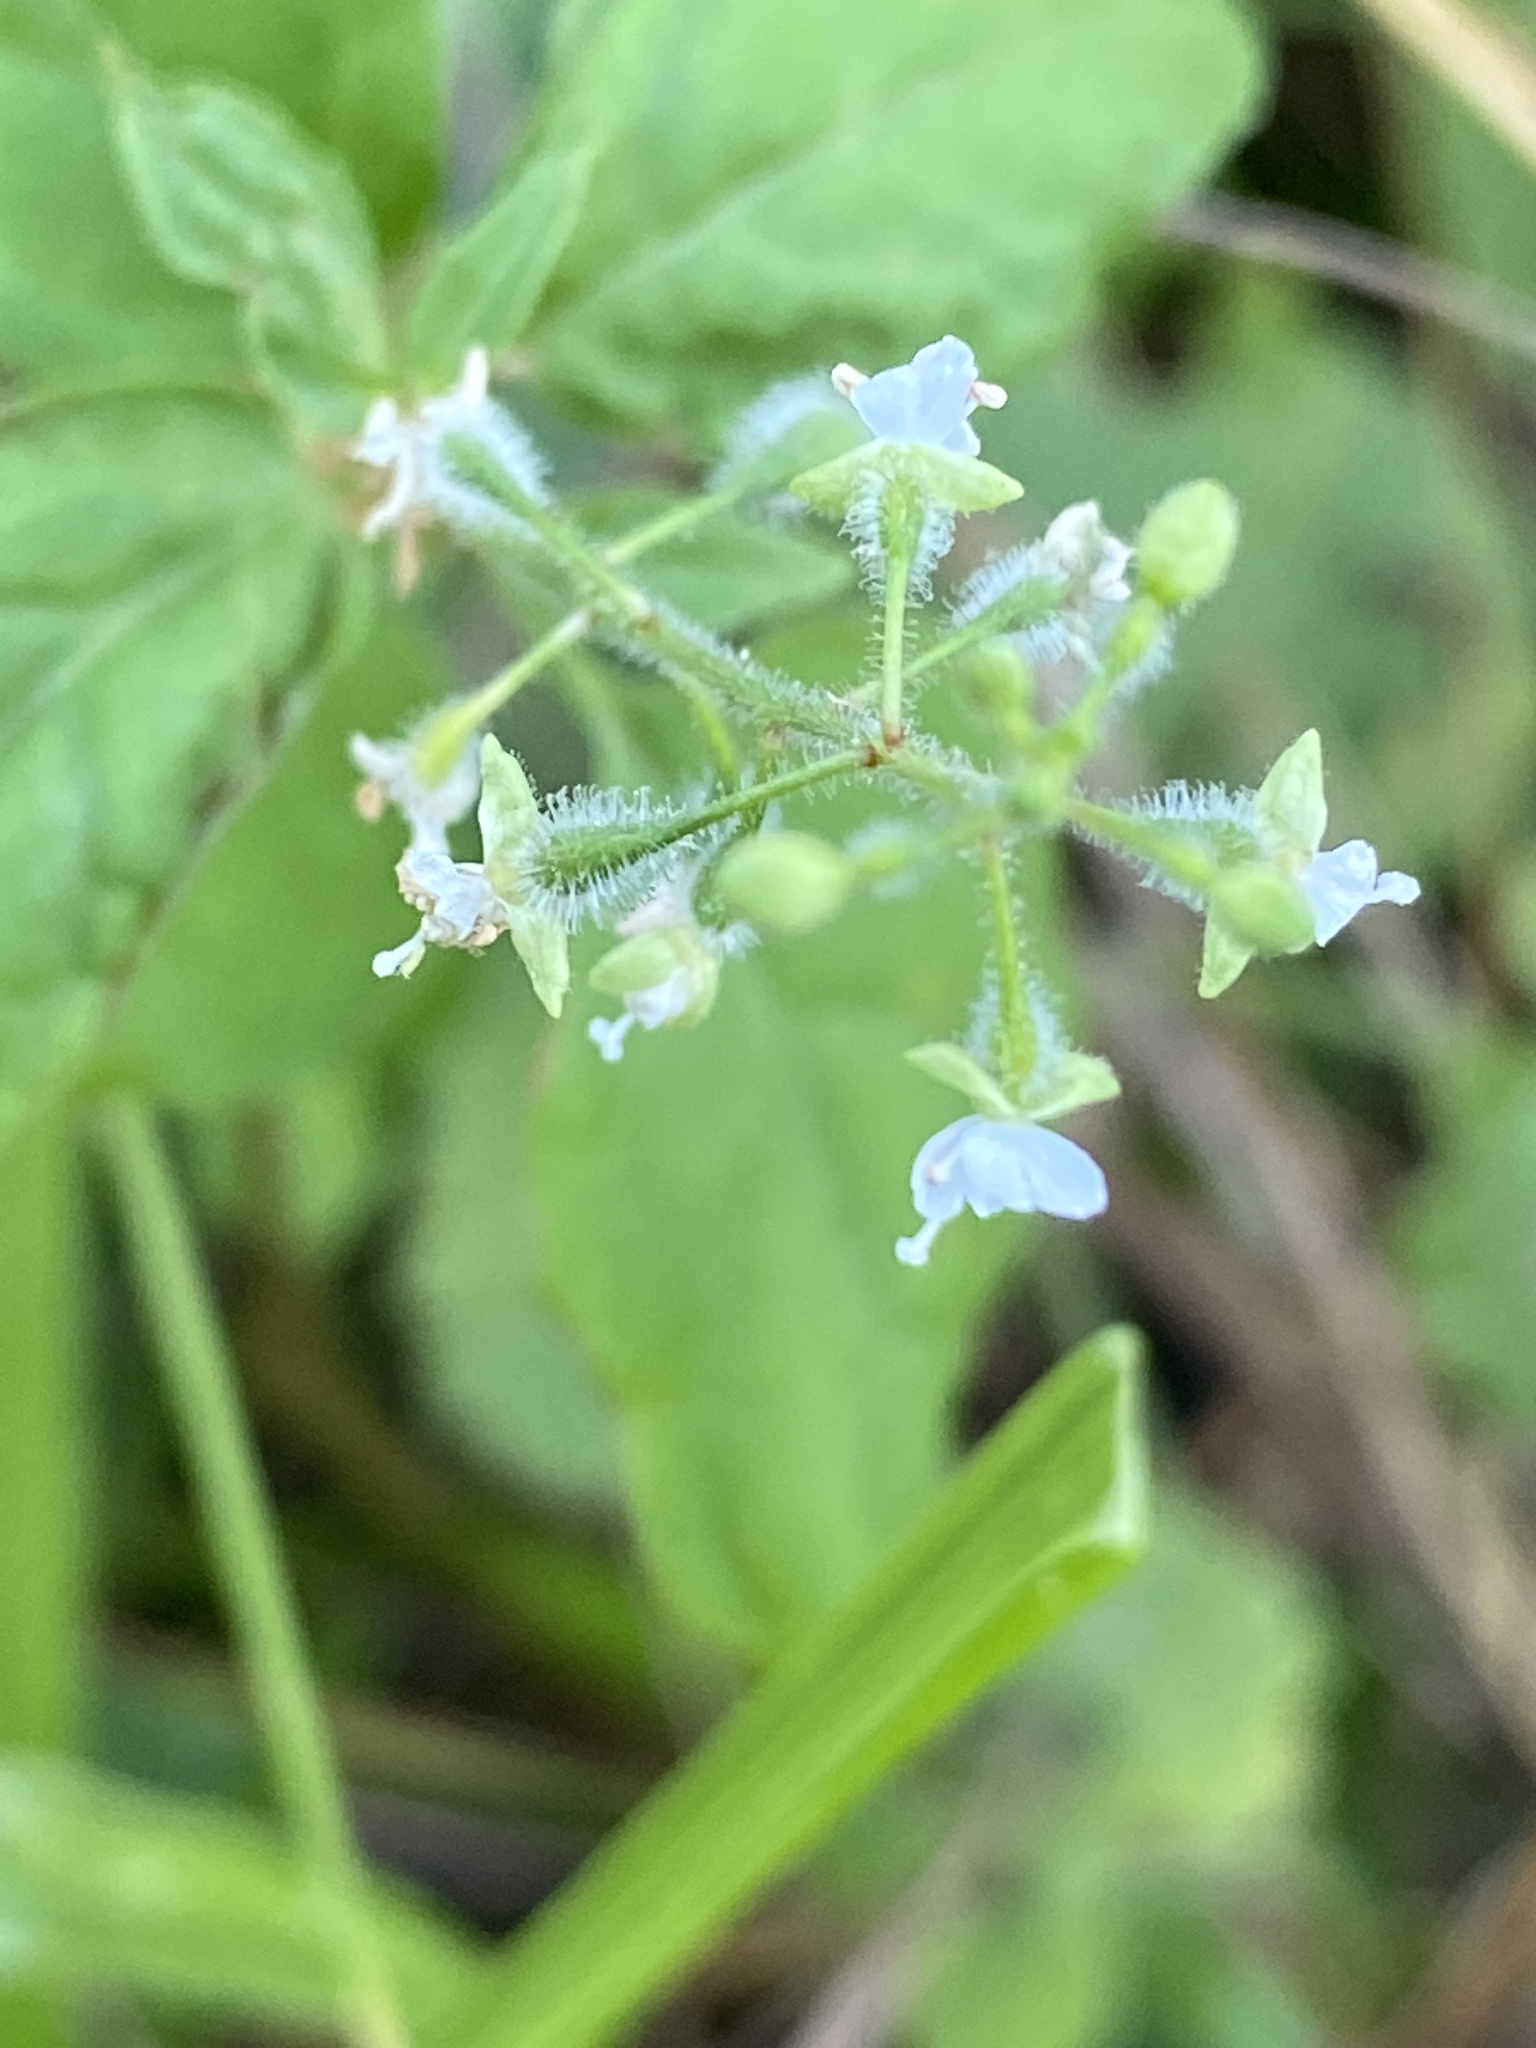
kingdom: Plantae
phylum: Tracheophyta
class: Magnoliopsida
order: Myrtales
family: Onagraceae
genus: Circaea
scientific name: Circaea canadensis
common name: Broad-leaved enchanter's nightshade
